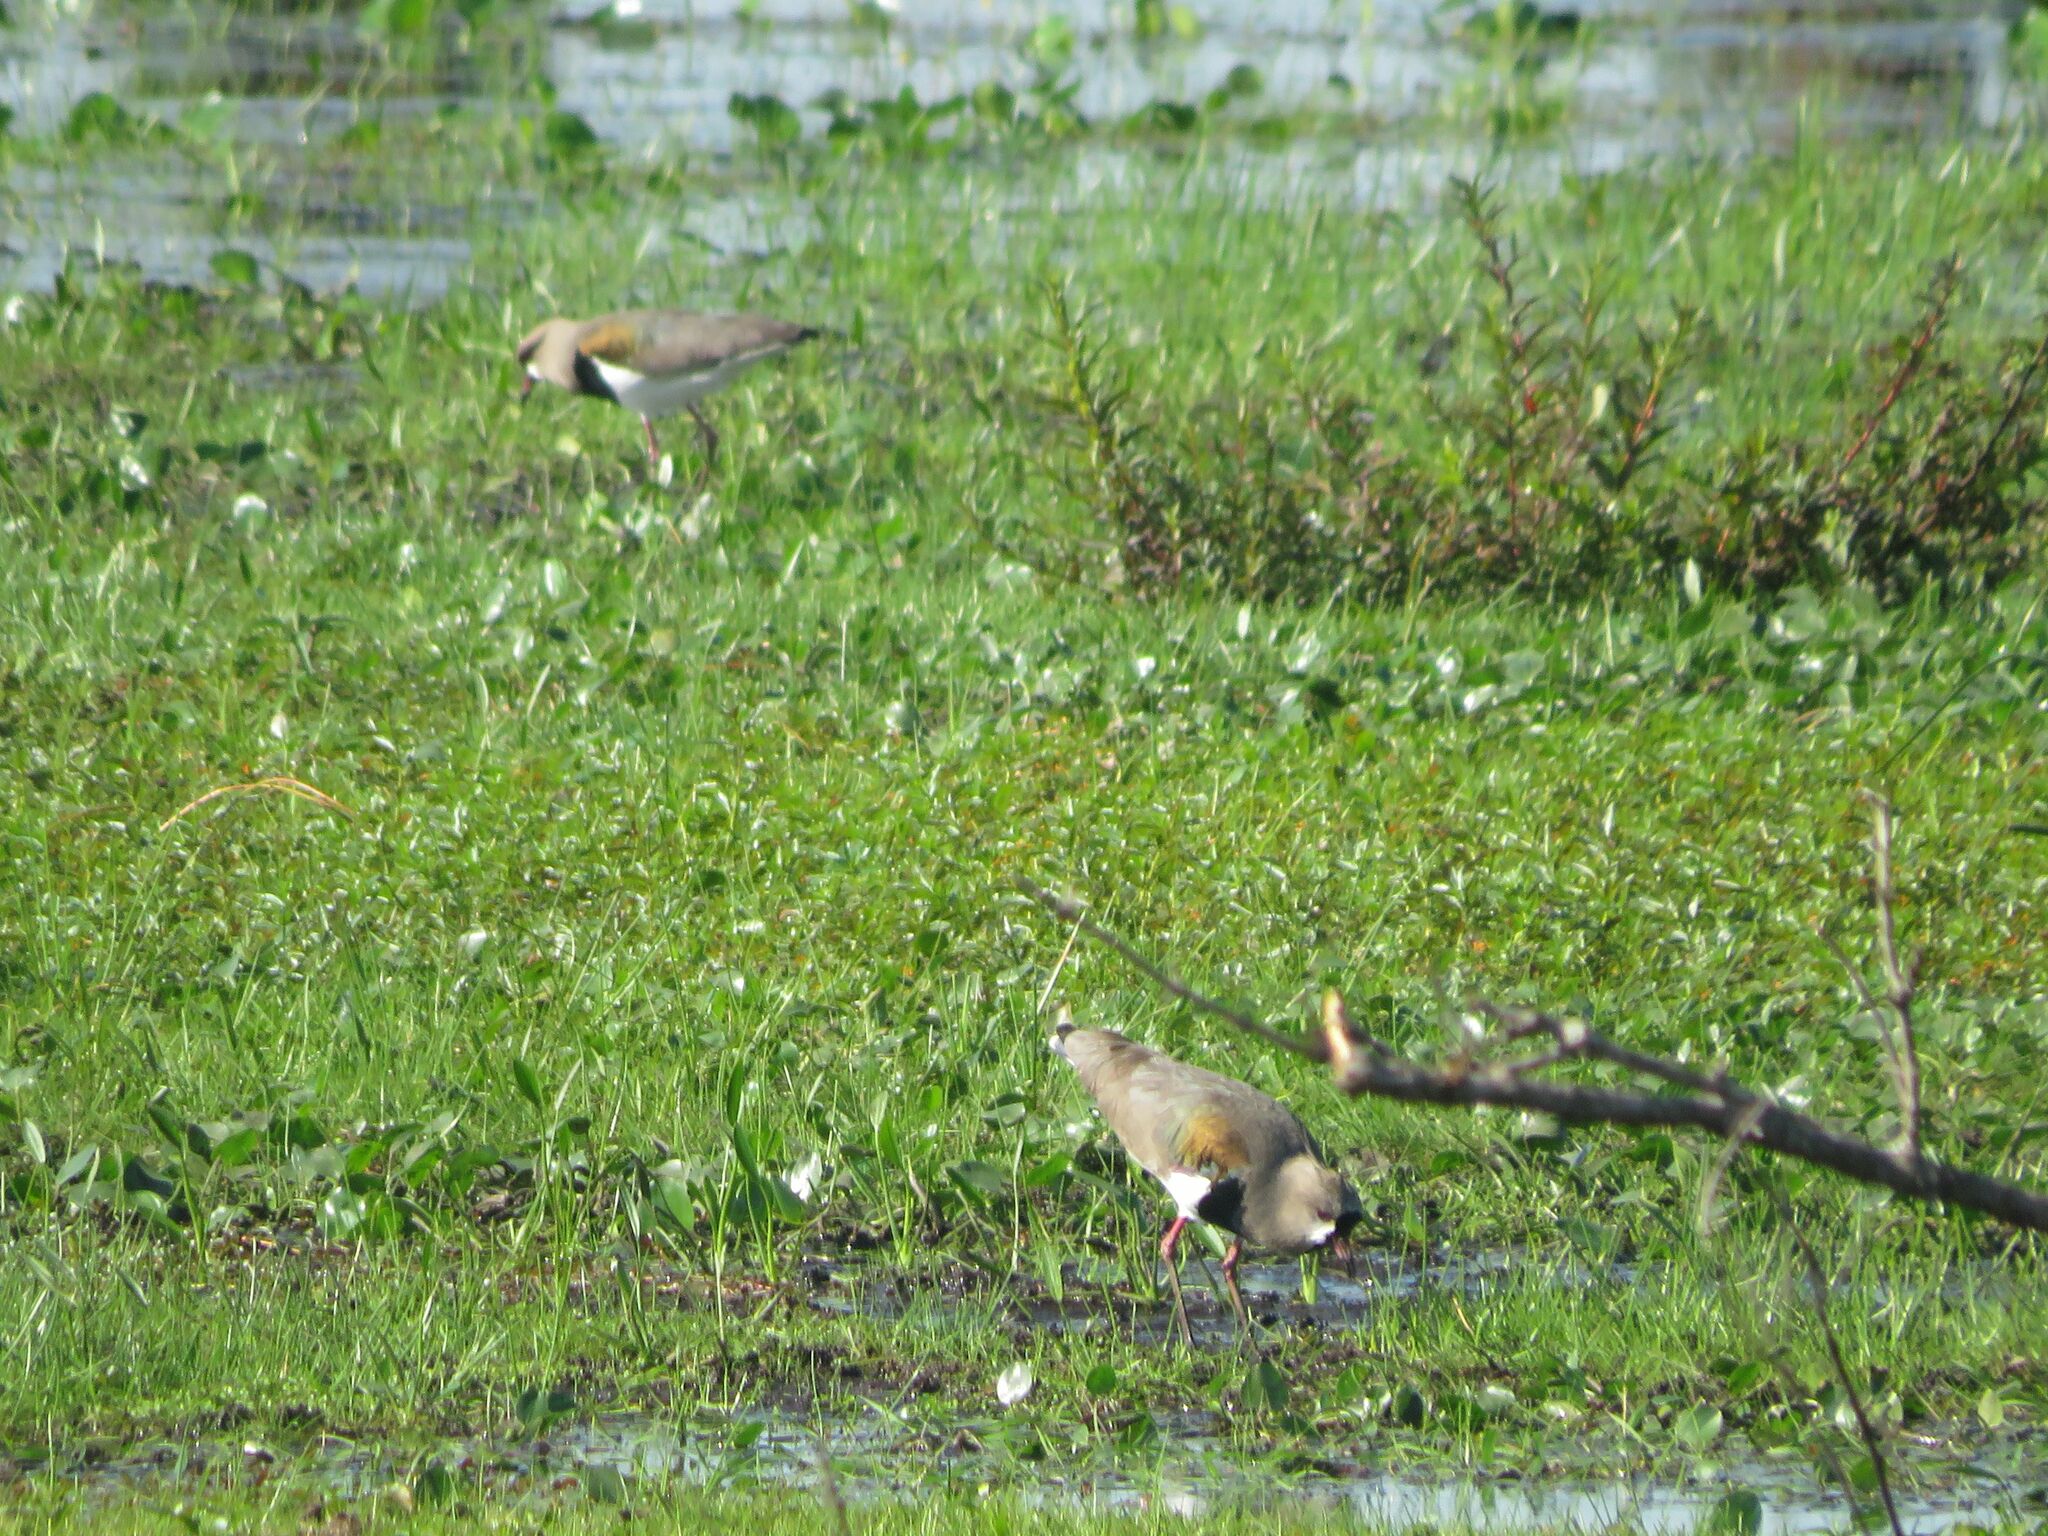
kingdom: Animalia
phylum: Chordata
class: Aves
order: Charadriiformes
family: Charadriidae
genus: Vanellus
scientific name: Vanellus chilensis
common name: Southern lapwing
